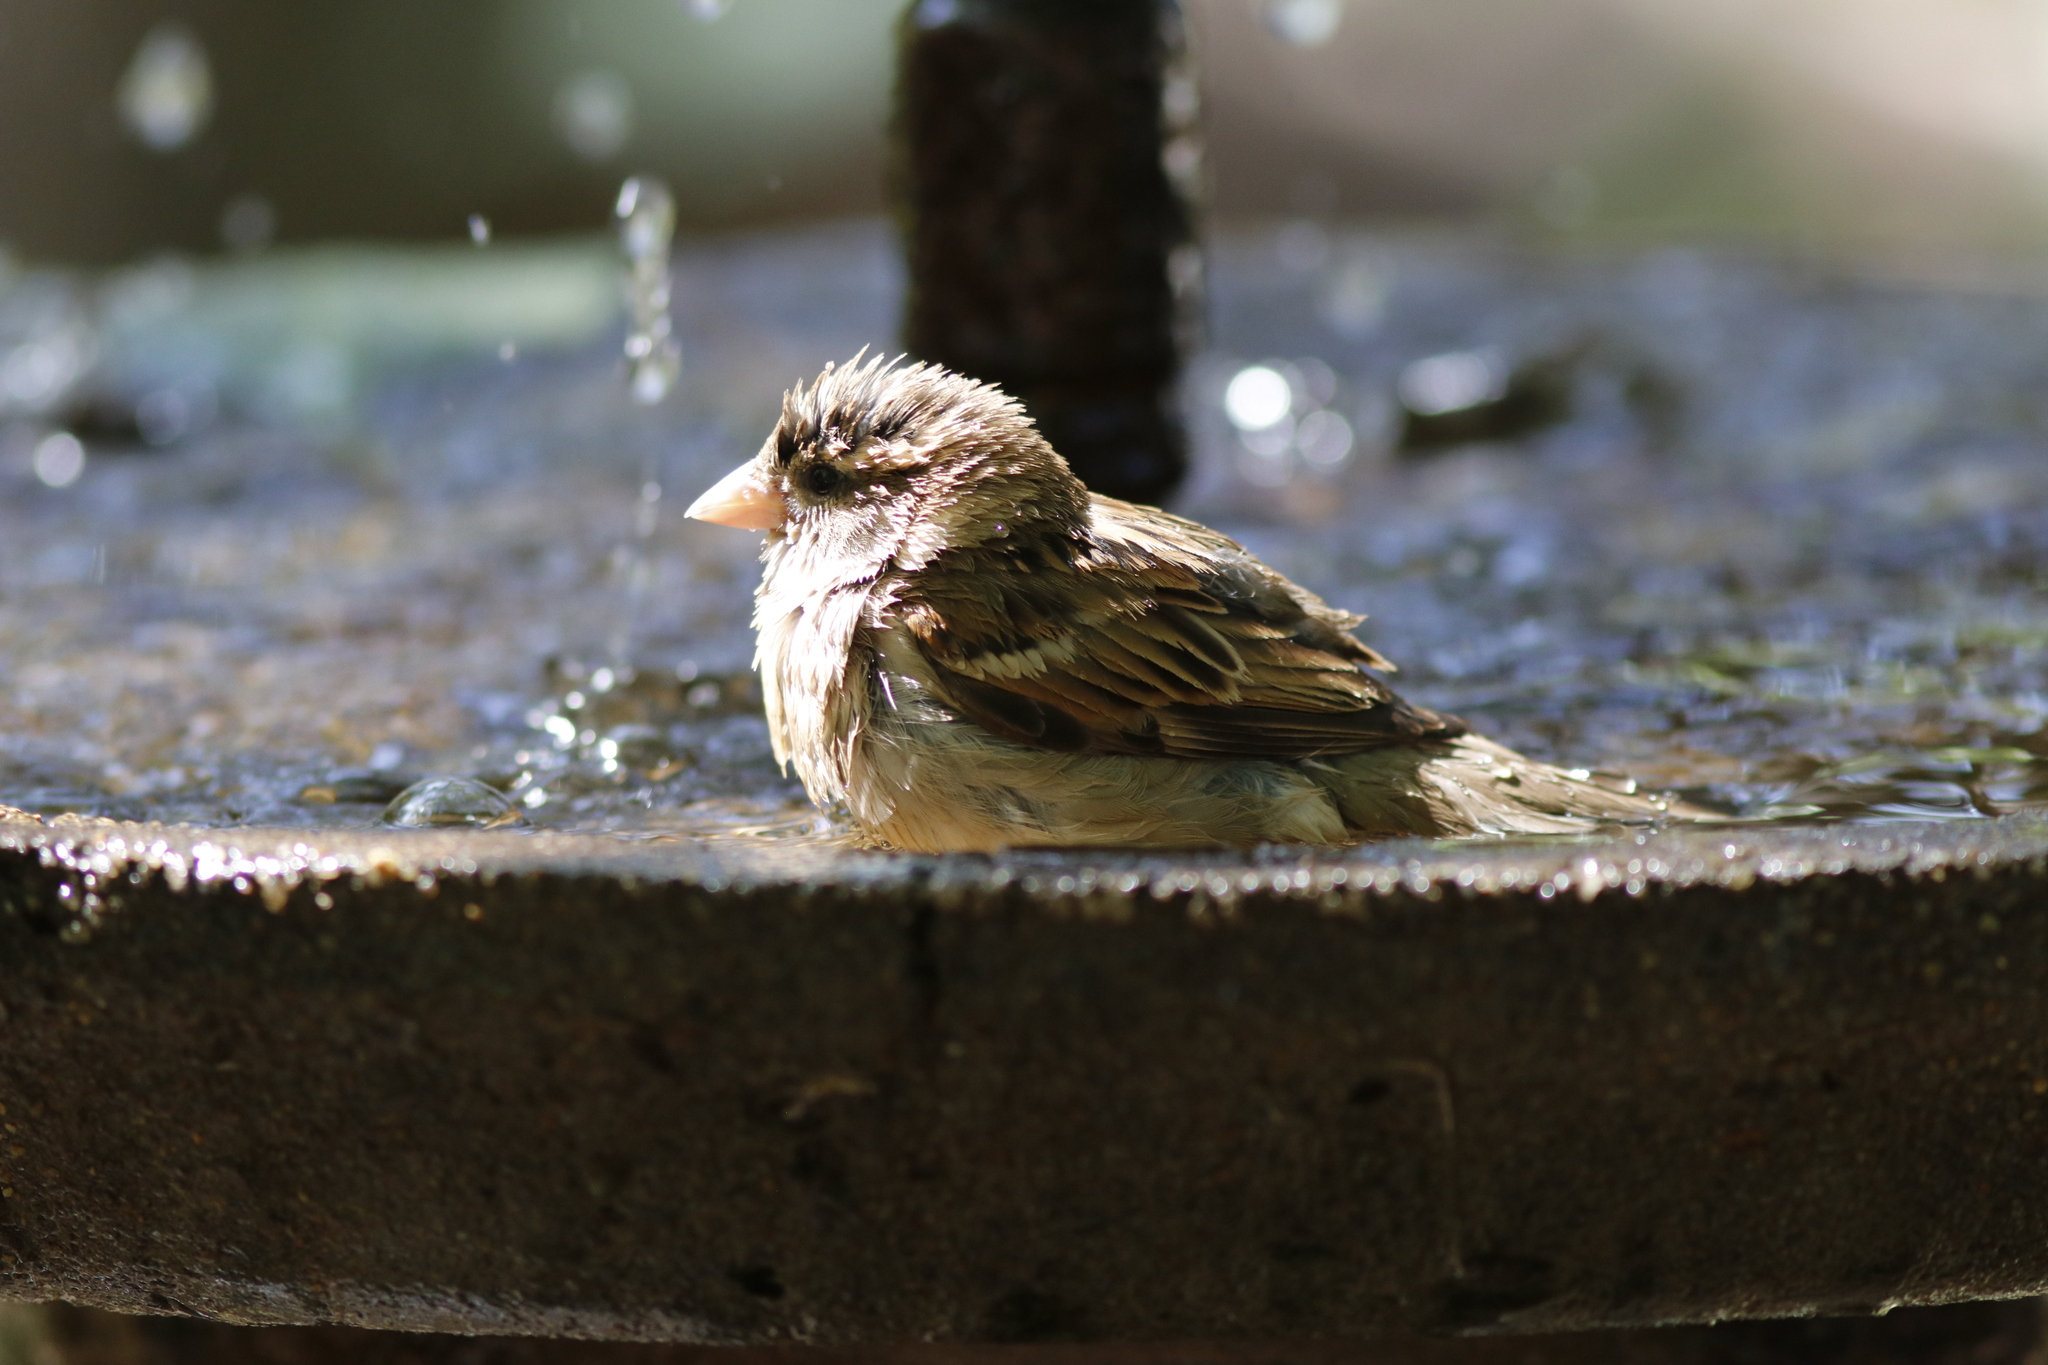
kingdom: Animalia
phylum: Chordata
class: Aves
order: Passeriformes
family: Passeridae
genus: Passer
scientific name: Passer domesticus
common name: House sparrow
